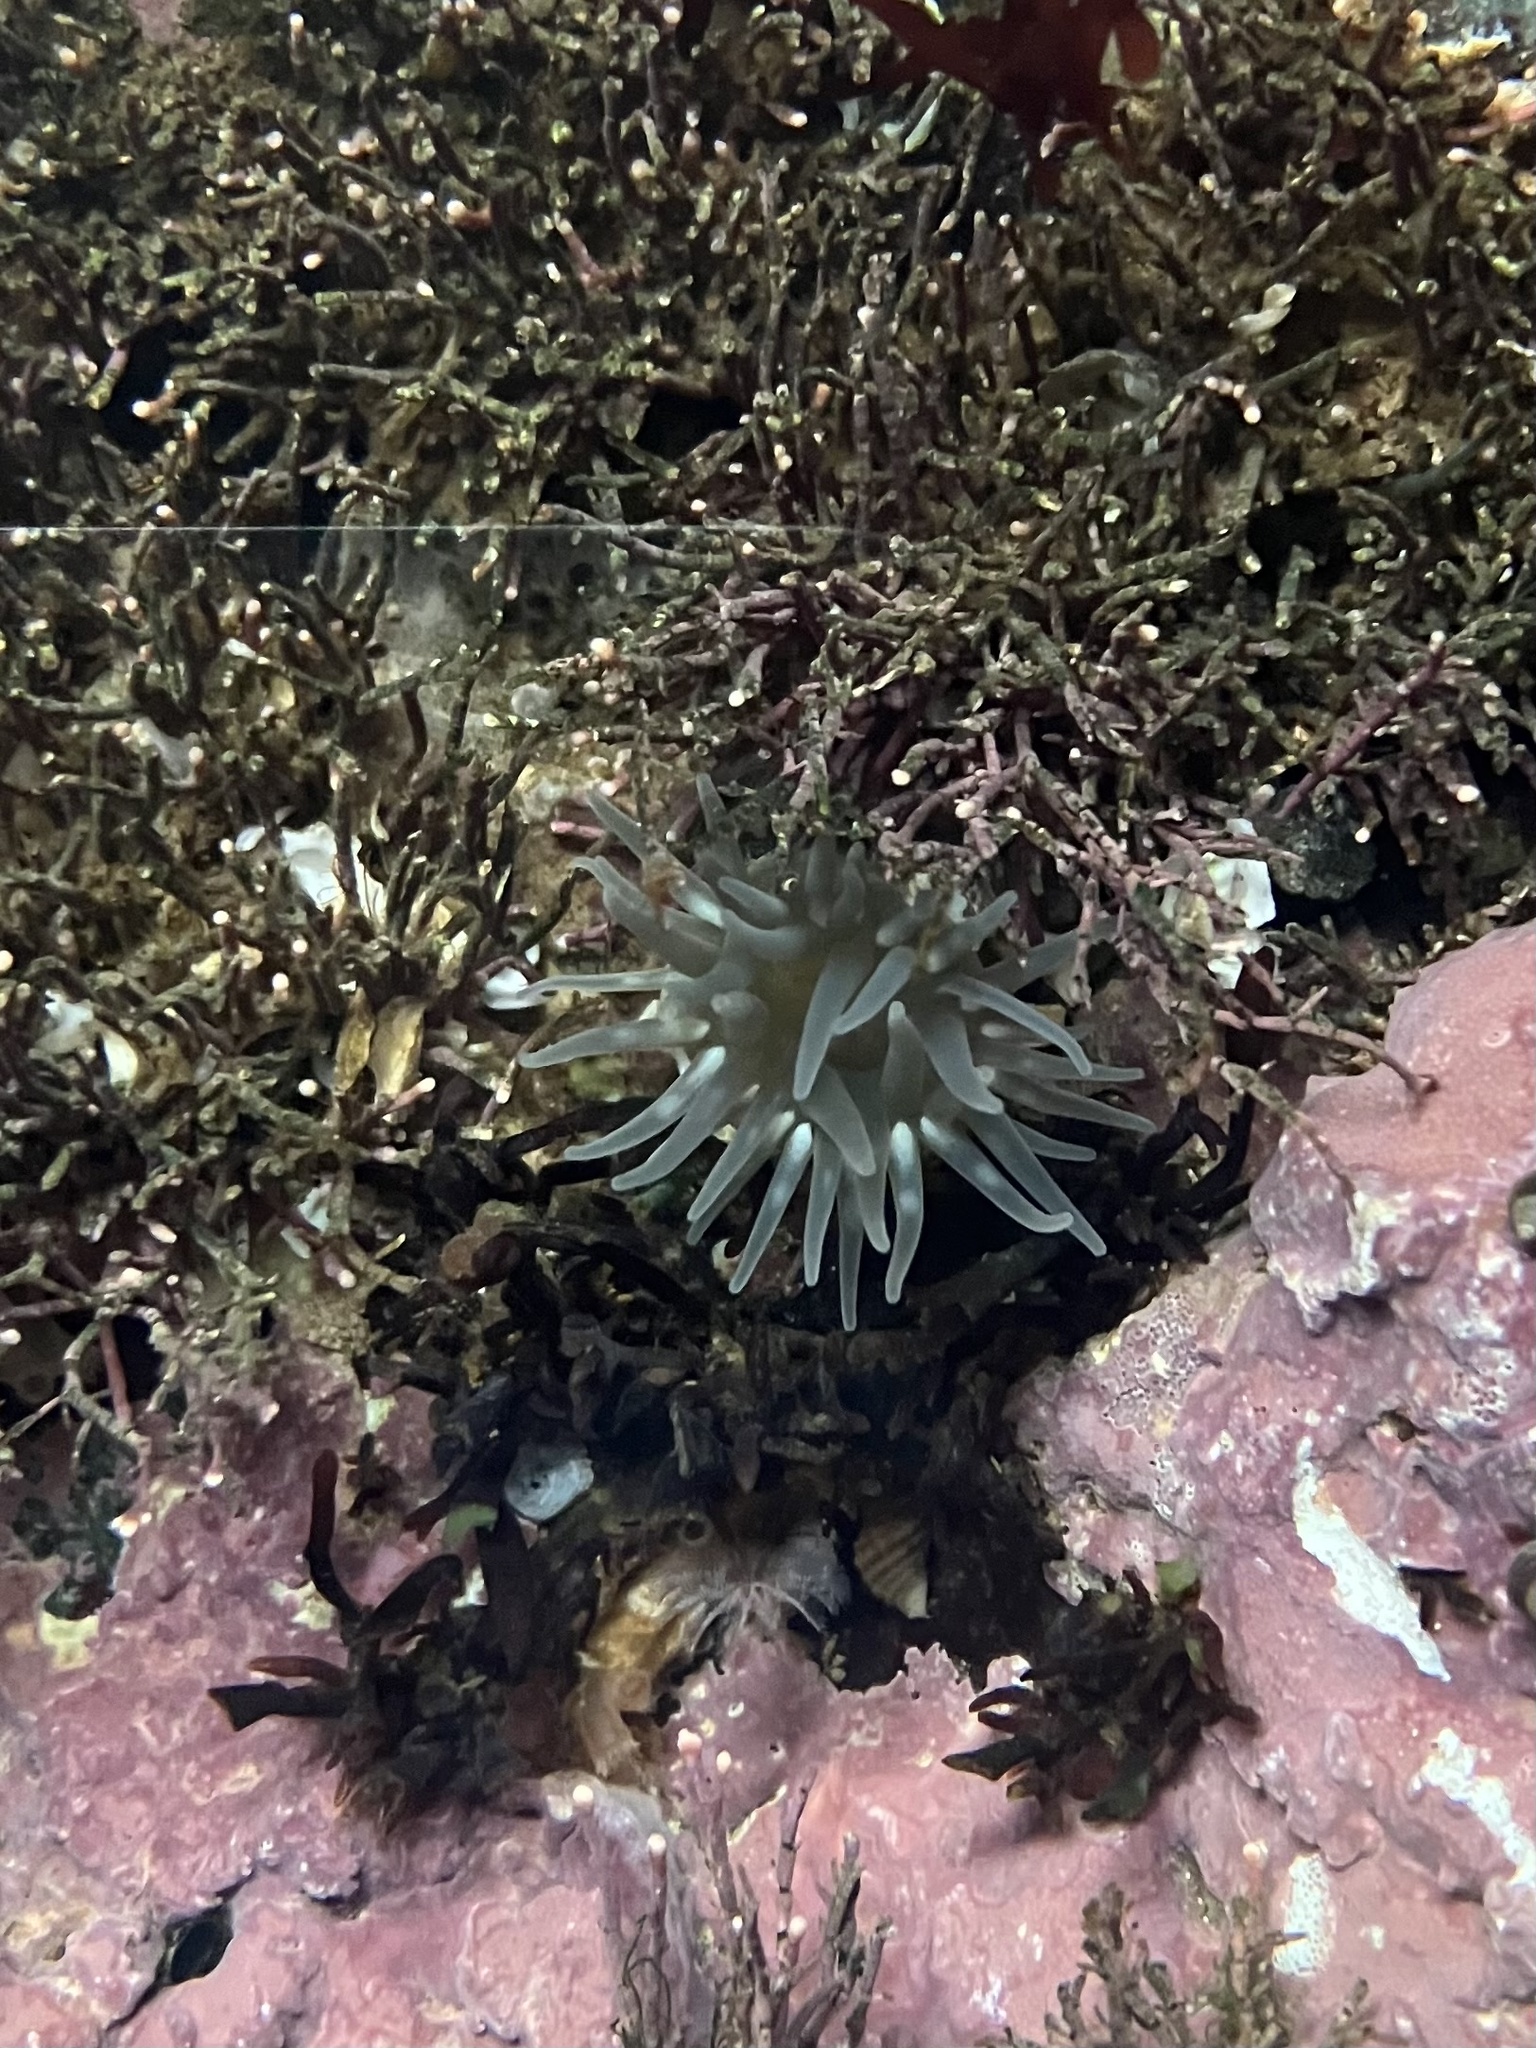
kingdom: Animalia
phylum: Cnidaria
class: Anthozoa
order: Actiniaria
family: Actiniidae
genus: Aulactinia
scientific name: Aulactinia stella
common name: Silver-spotted sea anemone
